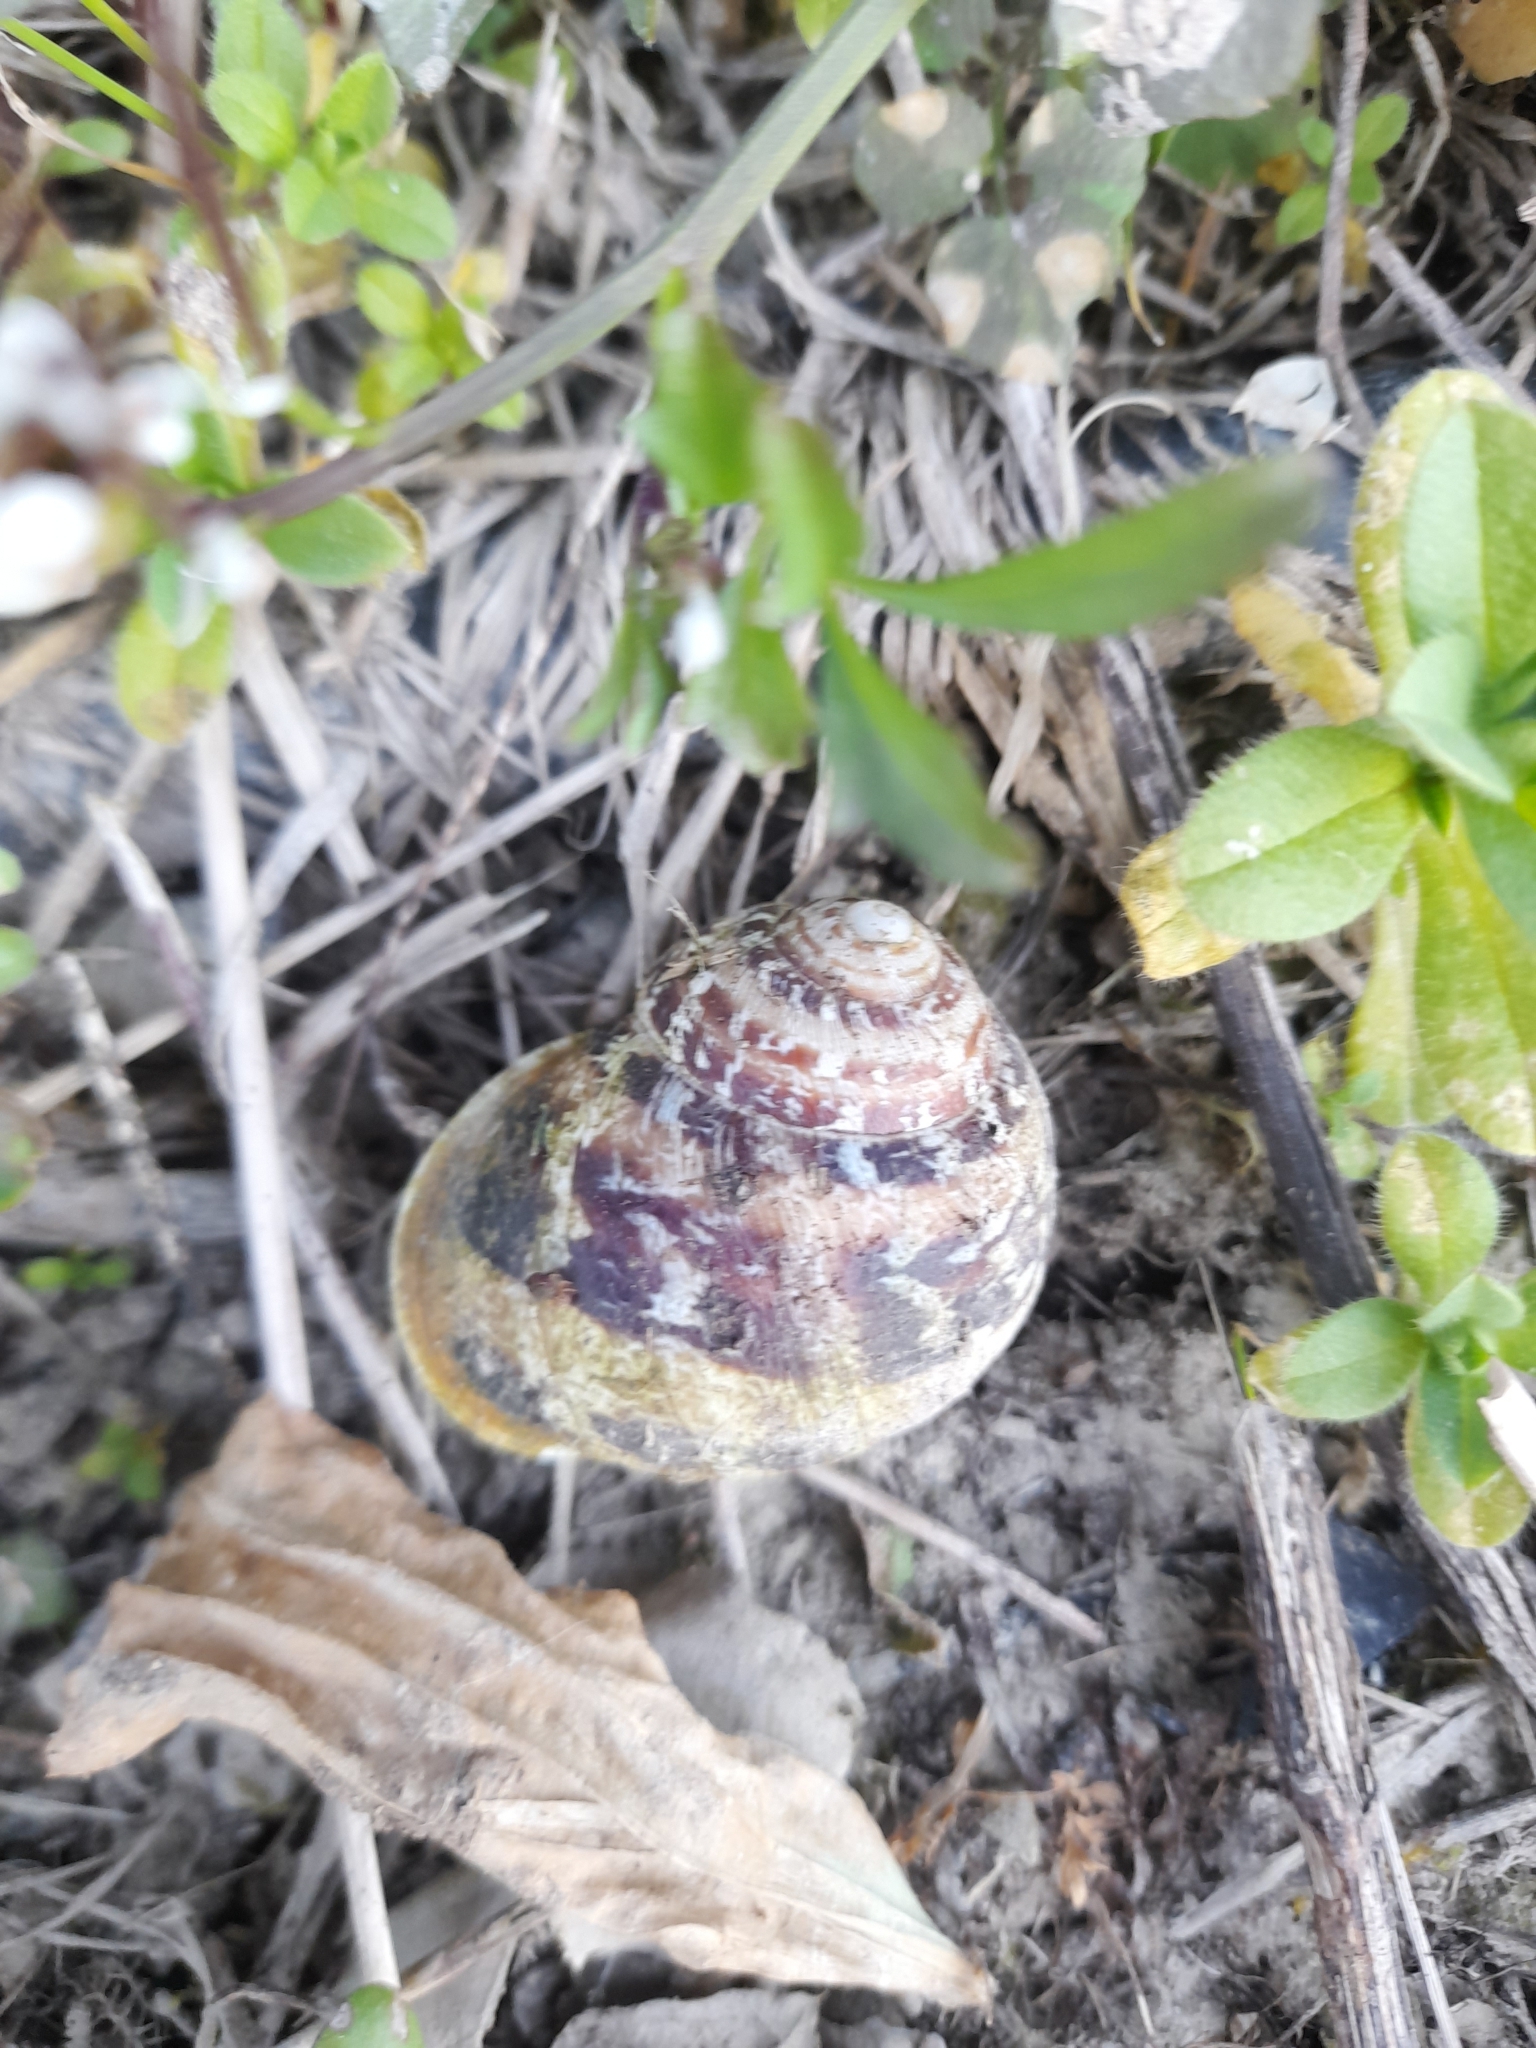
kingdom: Animalia
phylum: Mollusca
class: Gastropoda
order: Stylommatophora
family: Helicidae
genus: Cornu
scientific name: Cornu aspersum
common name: Brown garden snail
